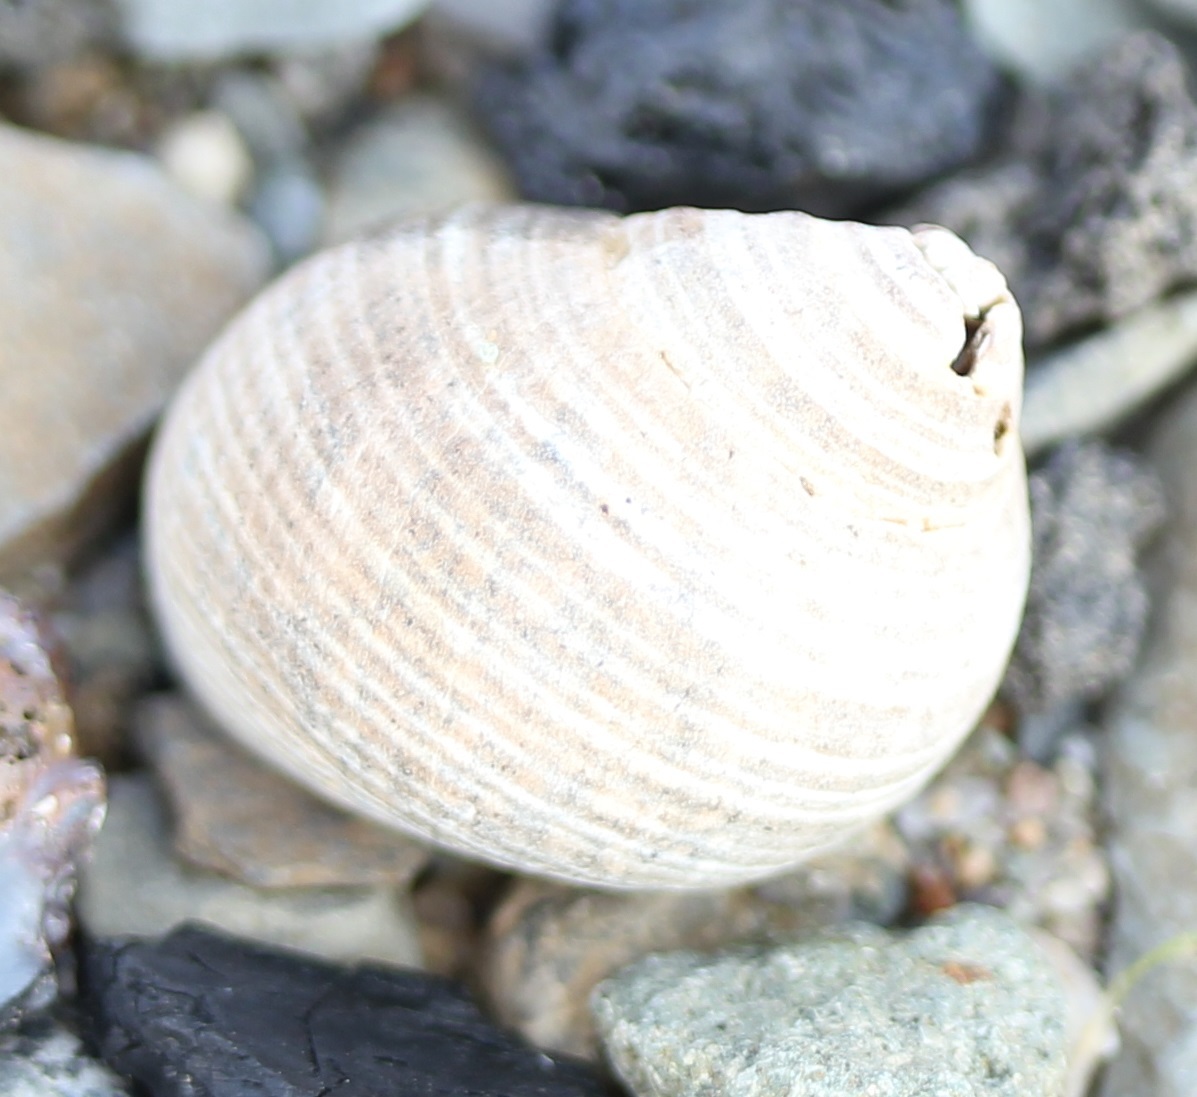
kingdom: Animalia
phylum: Mollusca
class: Gastropoda
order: Littorinimorpha
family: Littorinidae
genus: Littorina
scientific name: Littorina littorea
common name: Common periwinkle
